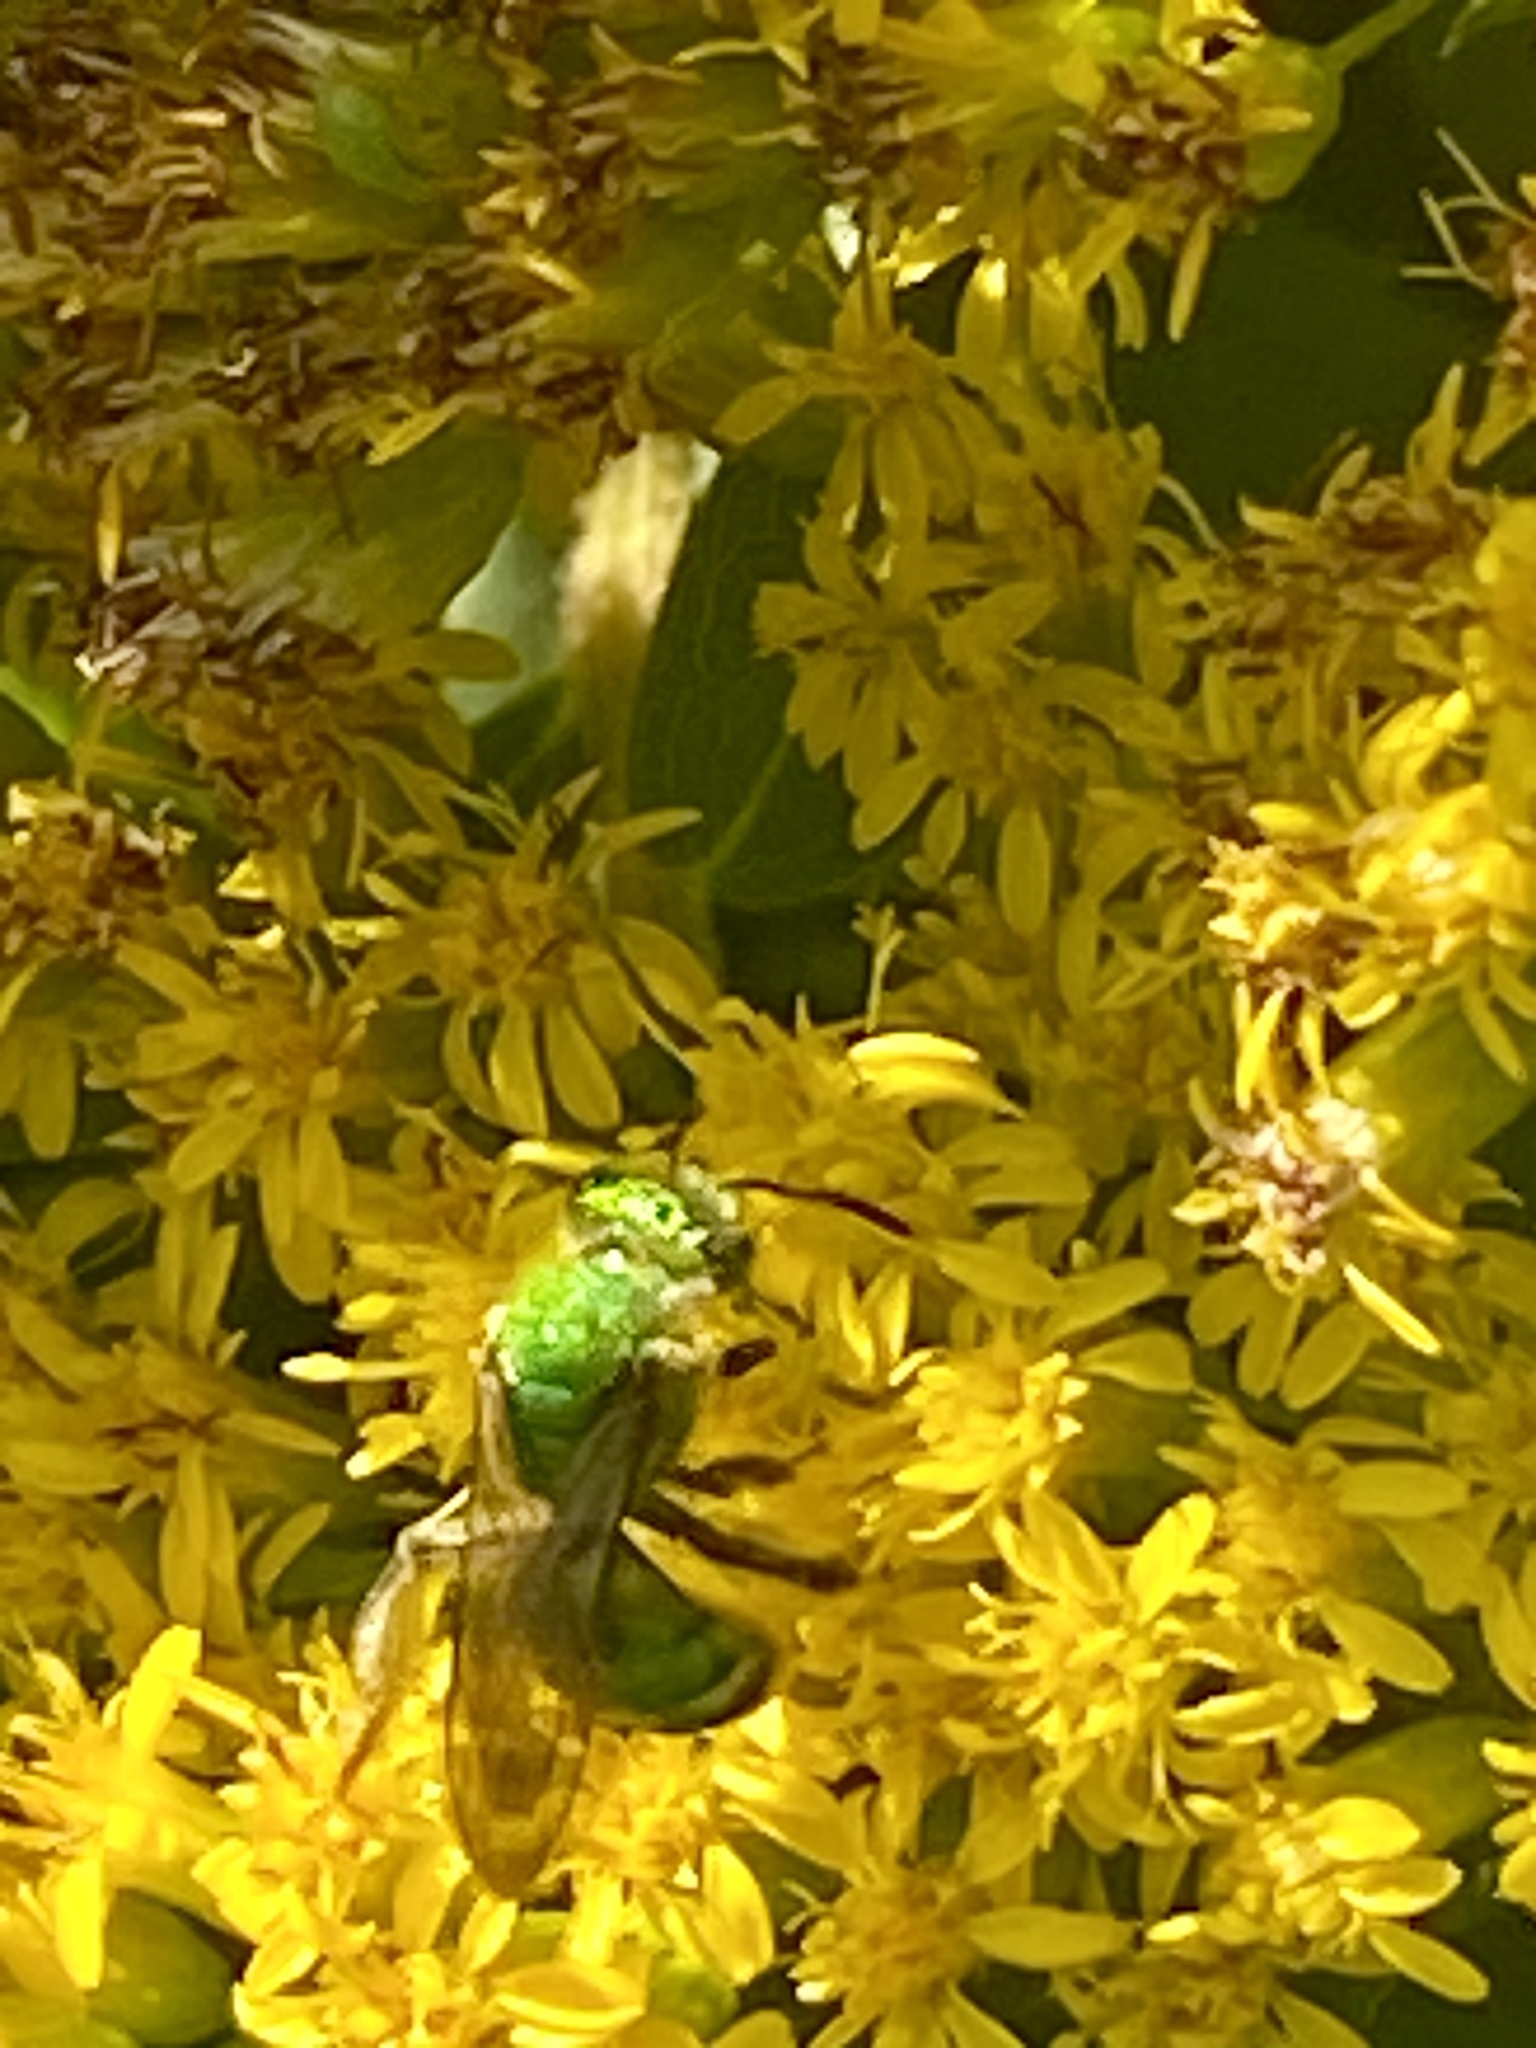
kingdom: Animalia
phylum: Arthropoda
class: Insecta
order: Hymenoptera
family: Halictidae
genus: Agapostemon
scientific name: Agapostemon sericeus
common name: Silky striped sweat bee
